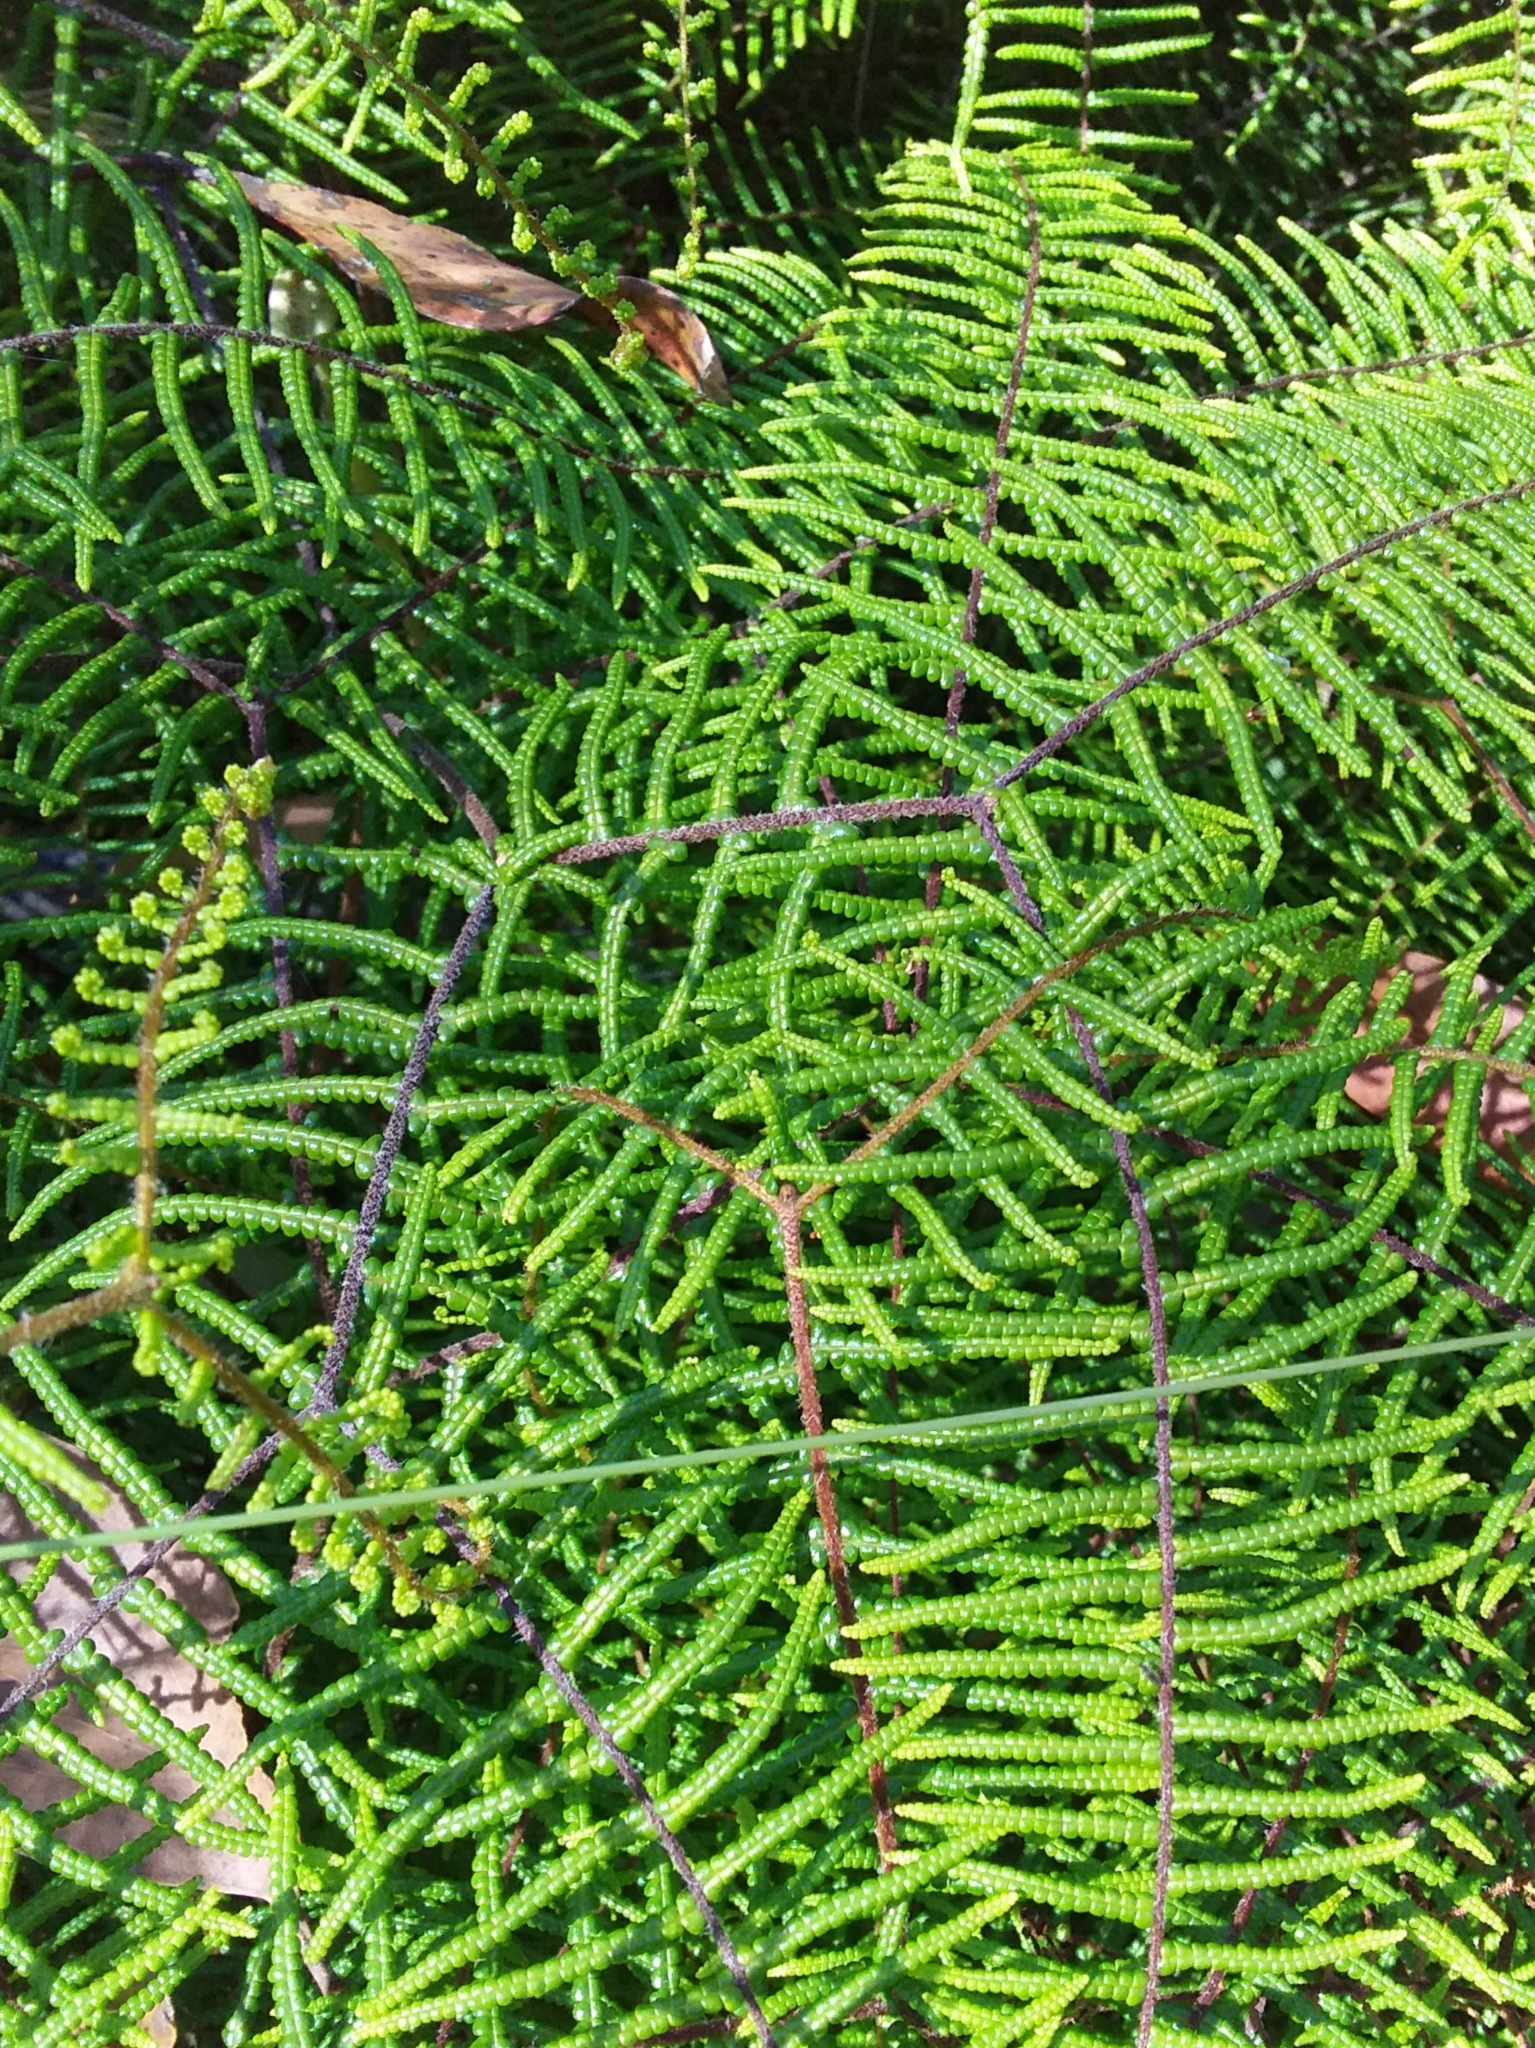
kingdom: Plantae
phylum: Tracheophyta
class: Polypodiopsida
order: Gleicheniales
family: Gleicheniaceae
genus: Gleichenia
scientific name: Gleichenia microphylla
